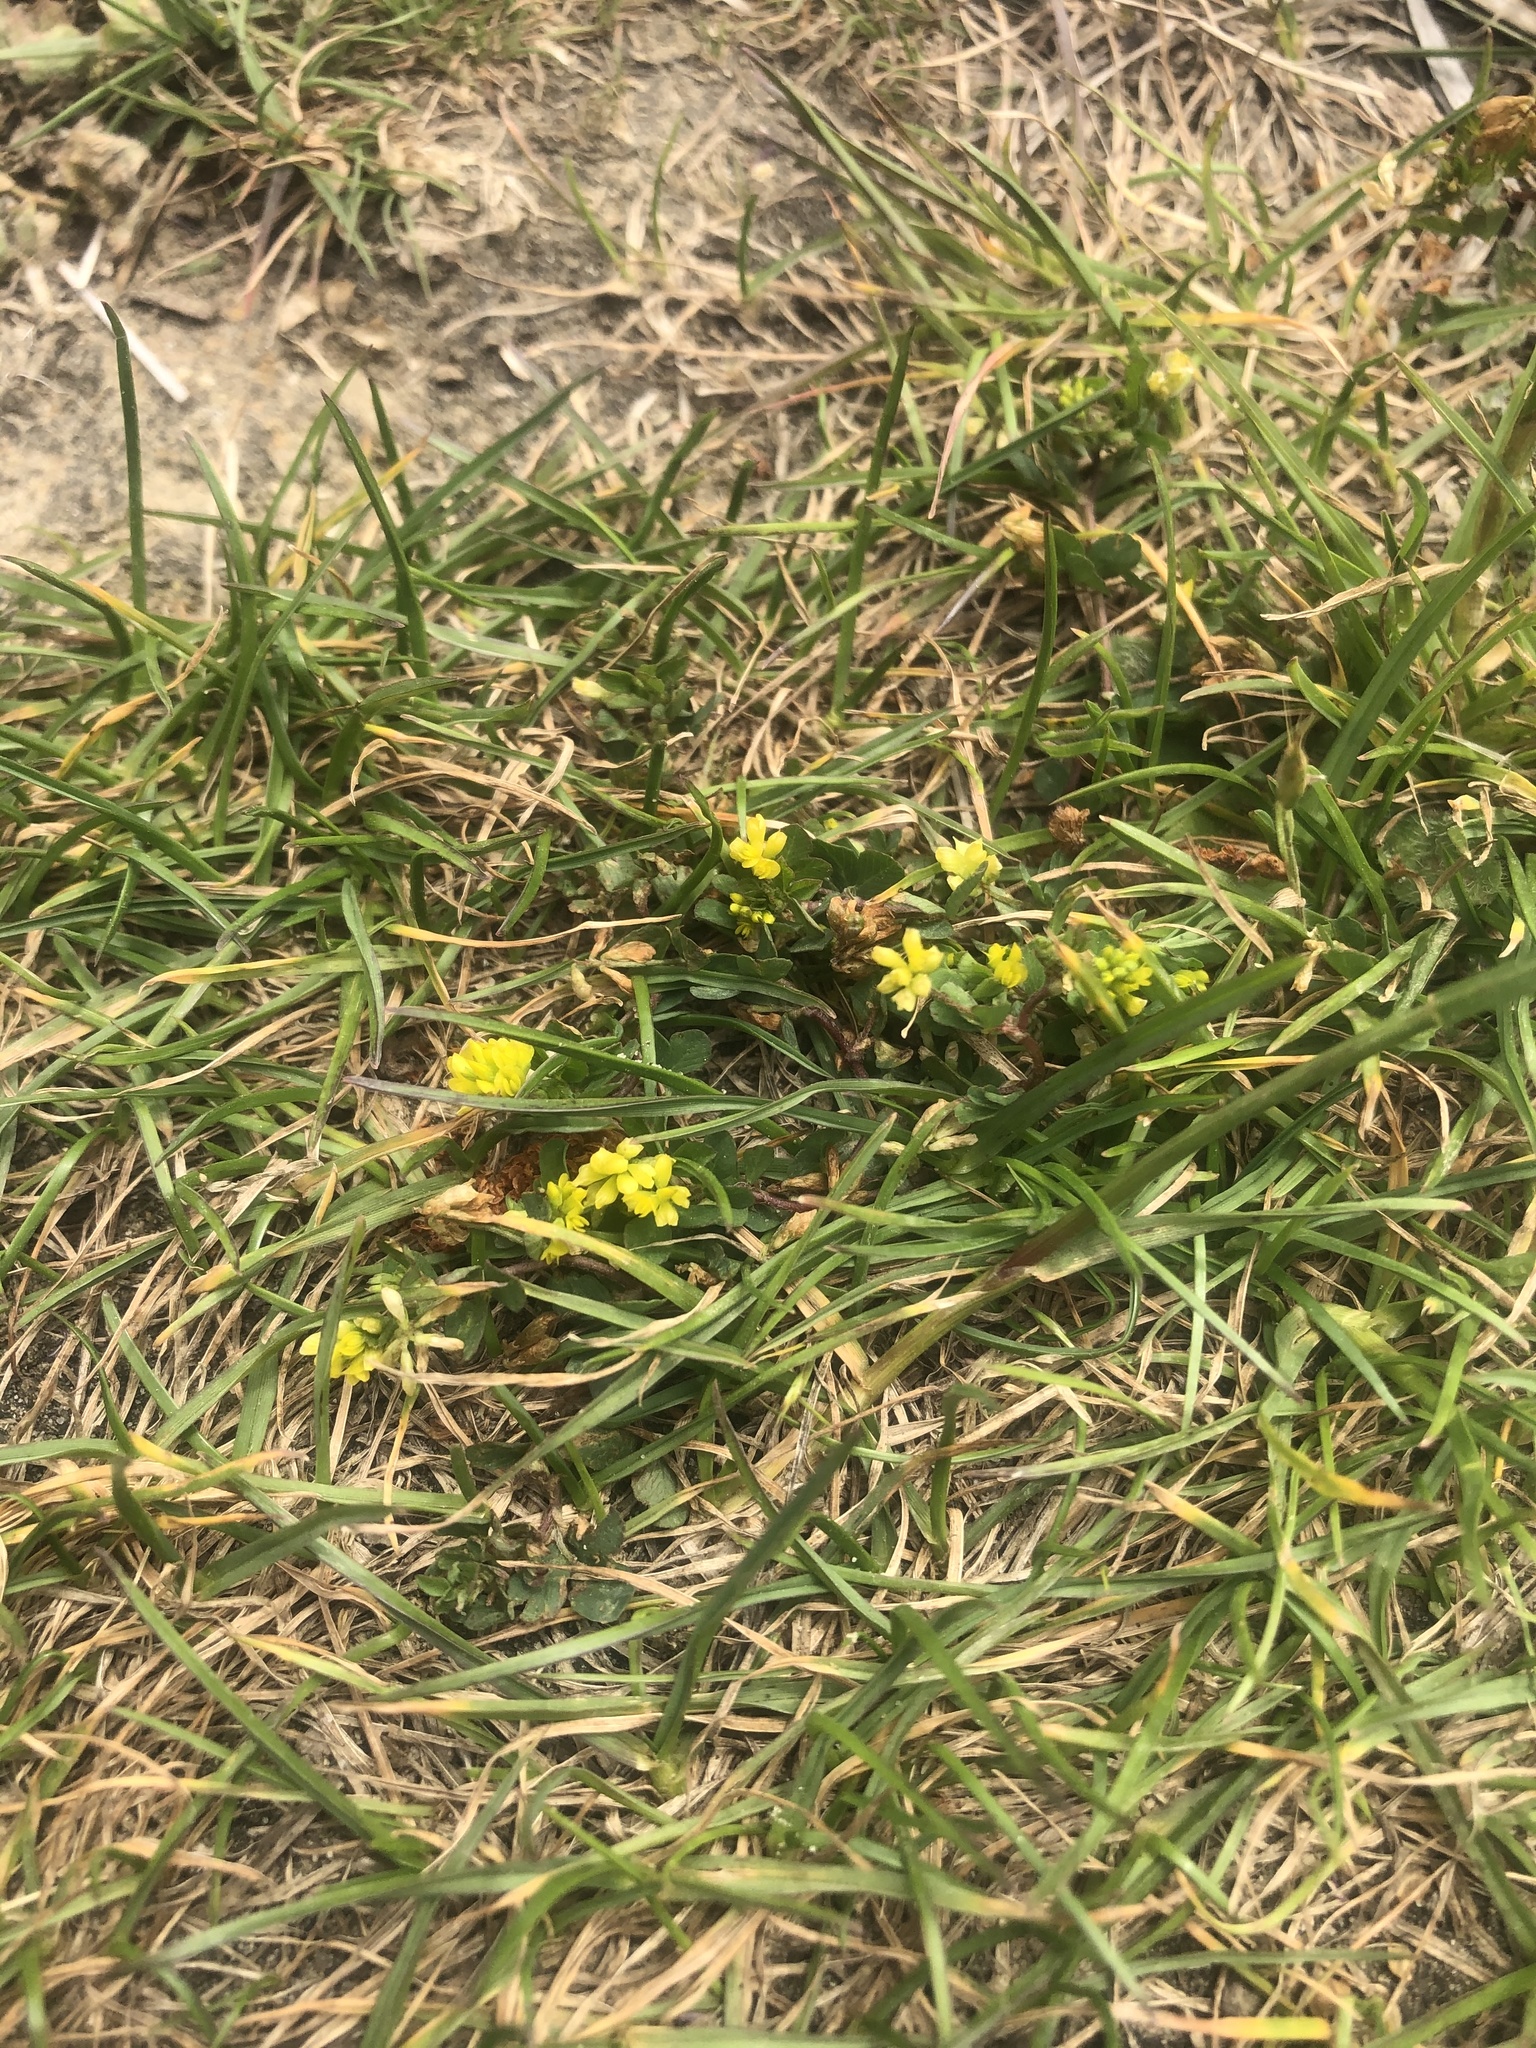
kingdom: Plantae
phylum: Tracheophyta
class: Magnoliopsida
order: Fabales
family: Fabaceae
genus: Trifolium
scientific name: Trifolium dubium
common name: Suckling clover
